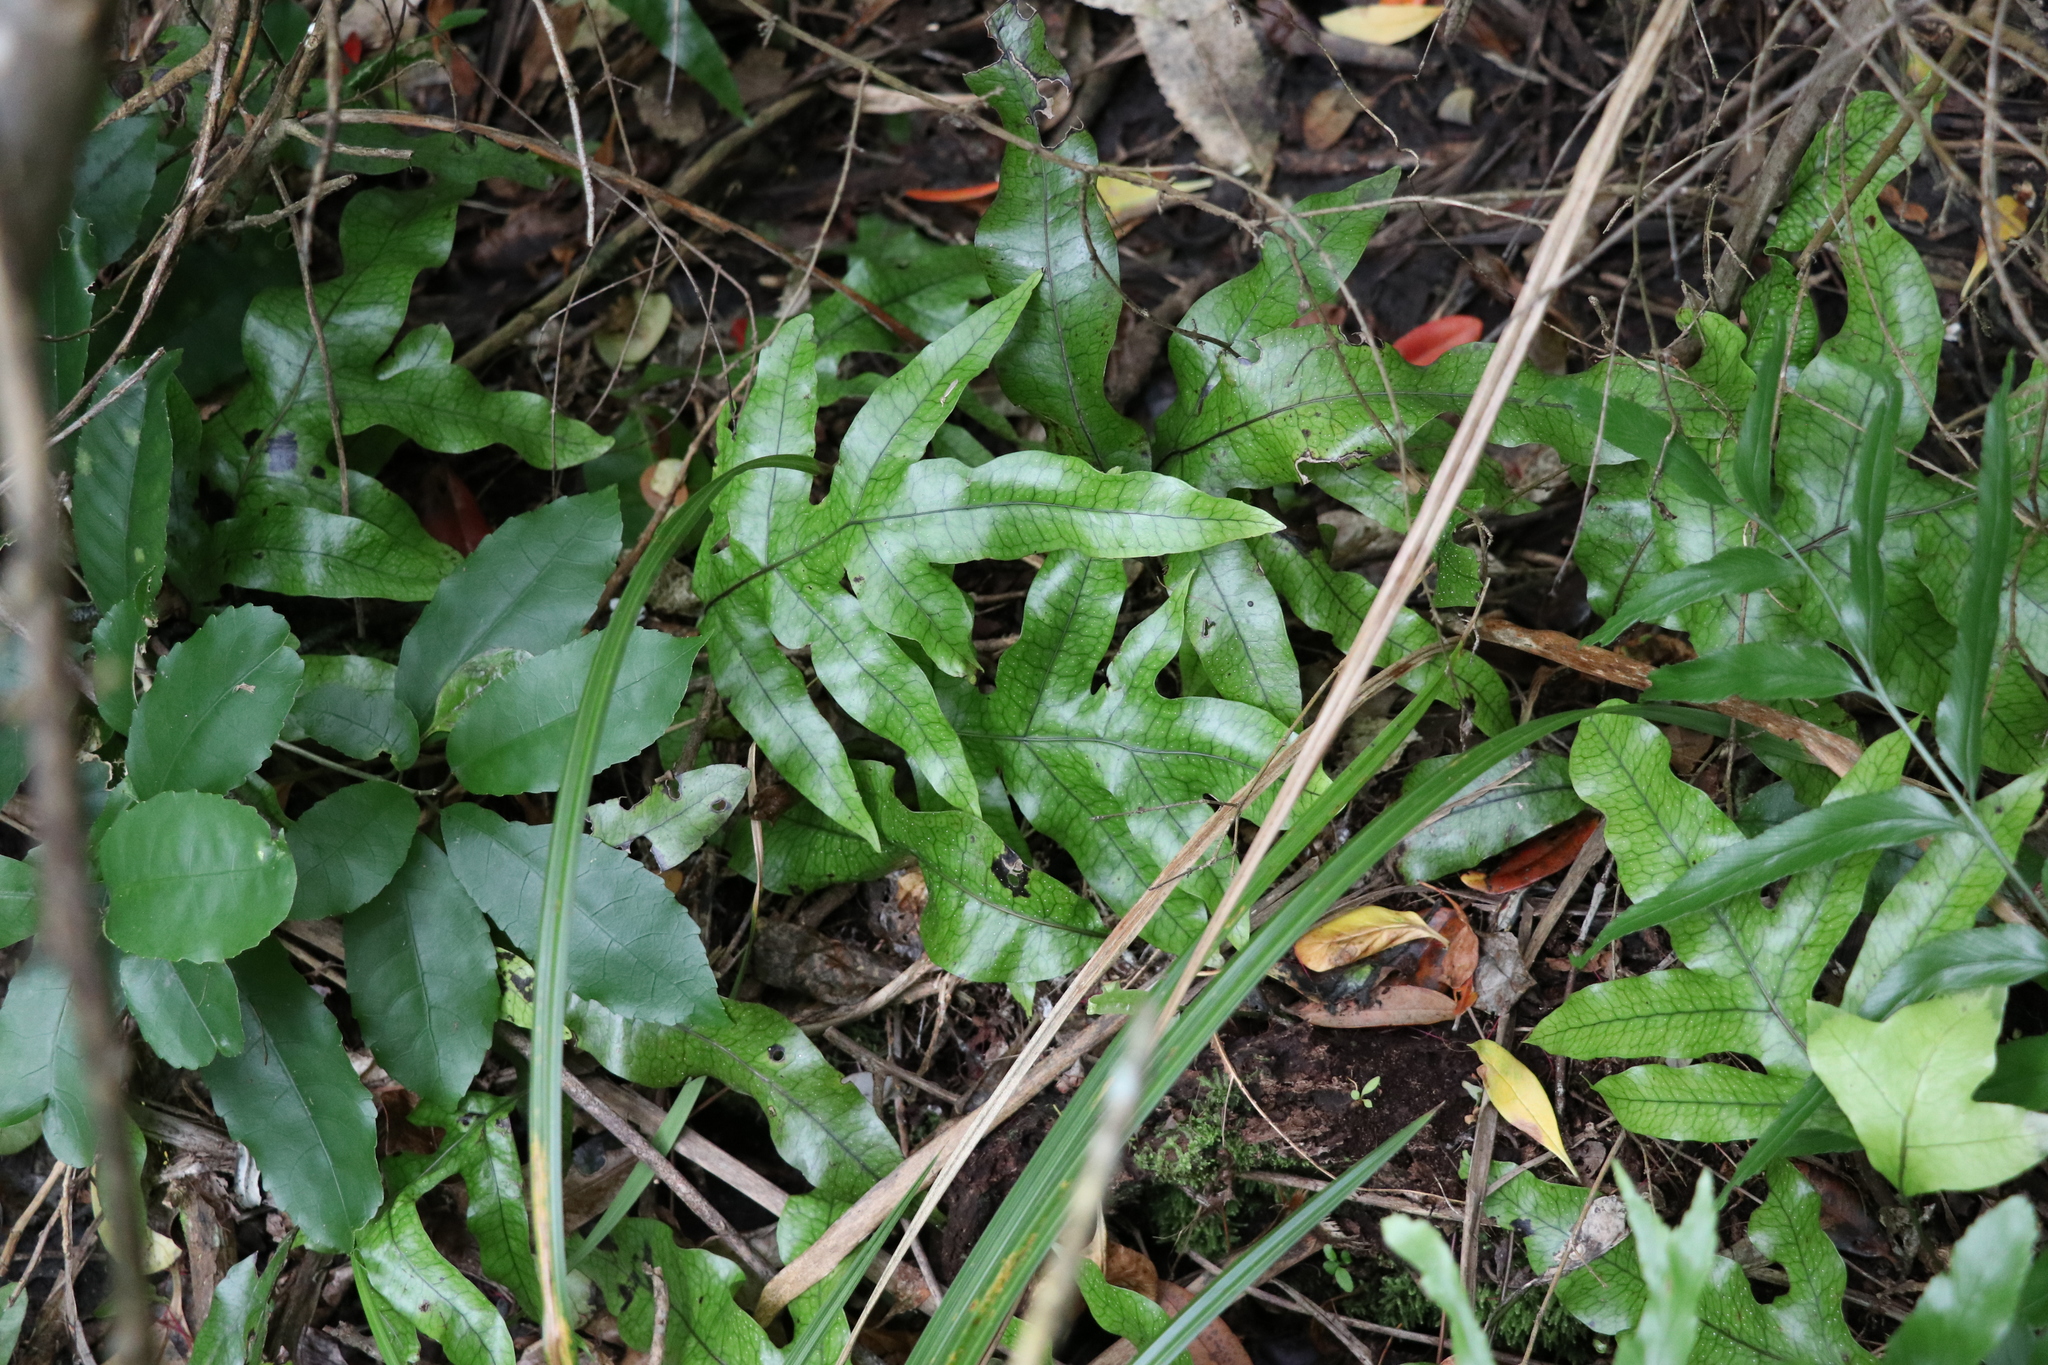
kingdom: Plantae
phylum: Tracheophyta
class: Polypodiopsida
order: Polypodiales
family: Polypodiaceae
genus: Lecanopteris
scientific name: Lecanopteris pustulata
